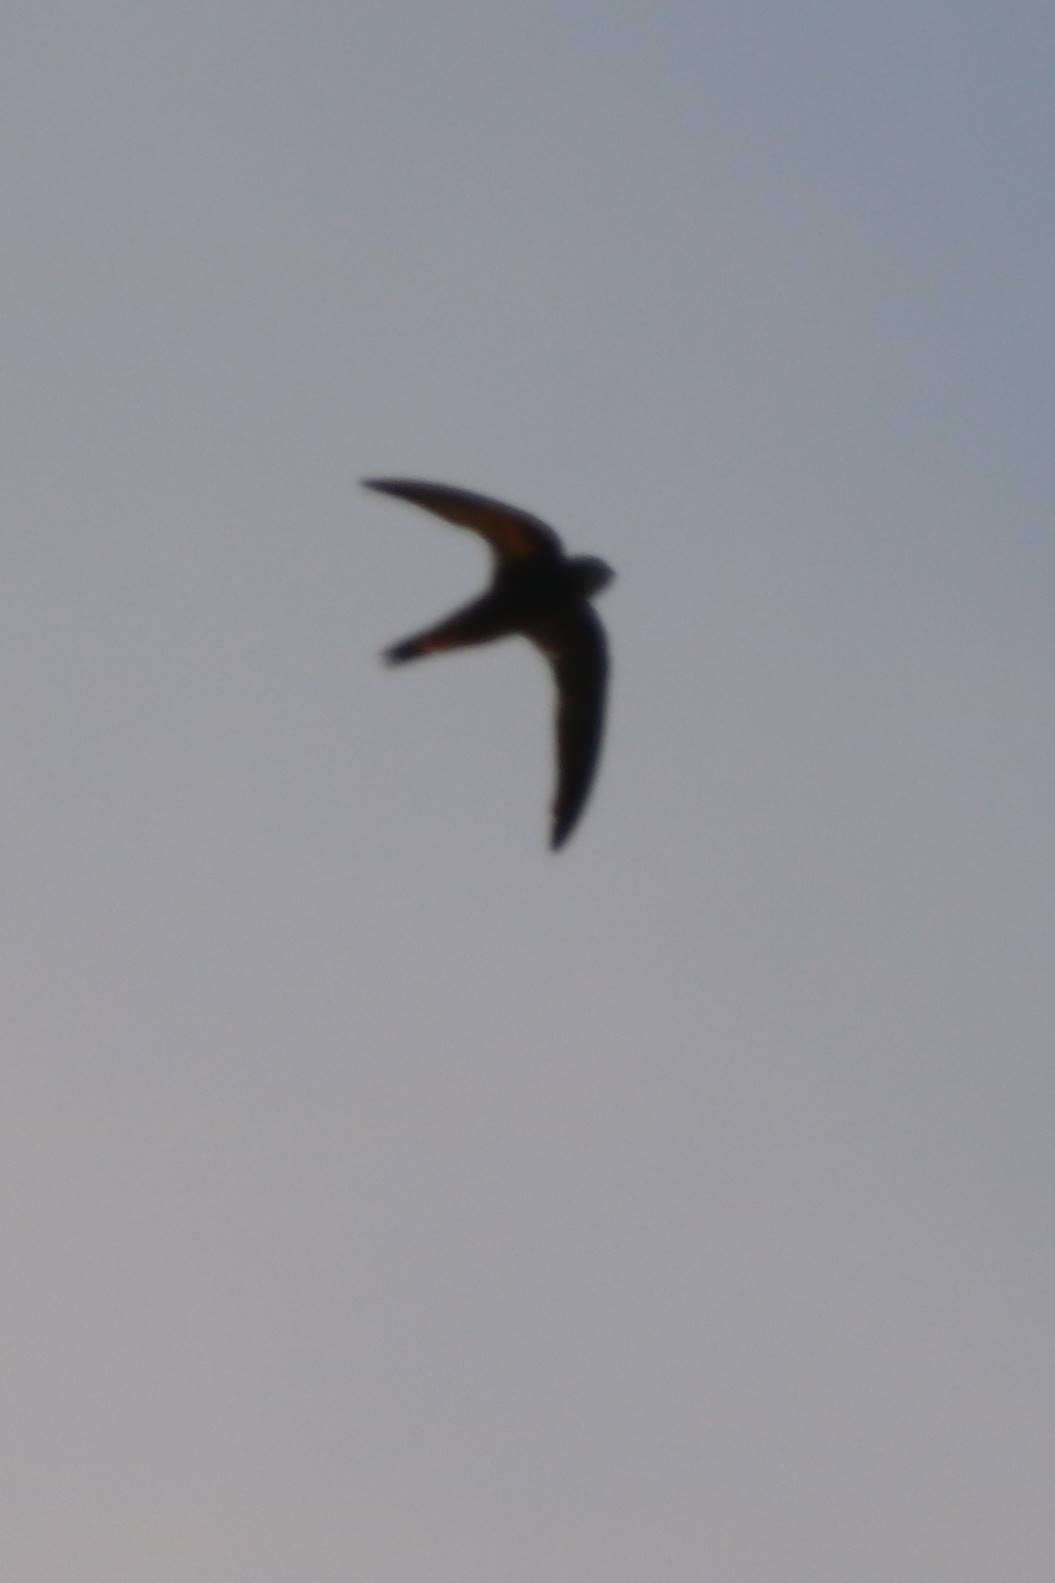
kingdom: Animalia
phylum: Chordata
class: Aves
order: Apodiformes
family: Apodidae
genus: Apus
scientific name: Apus pallidus
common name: Pallid swift
